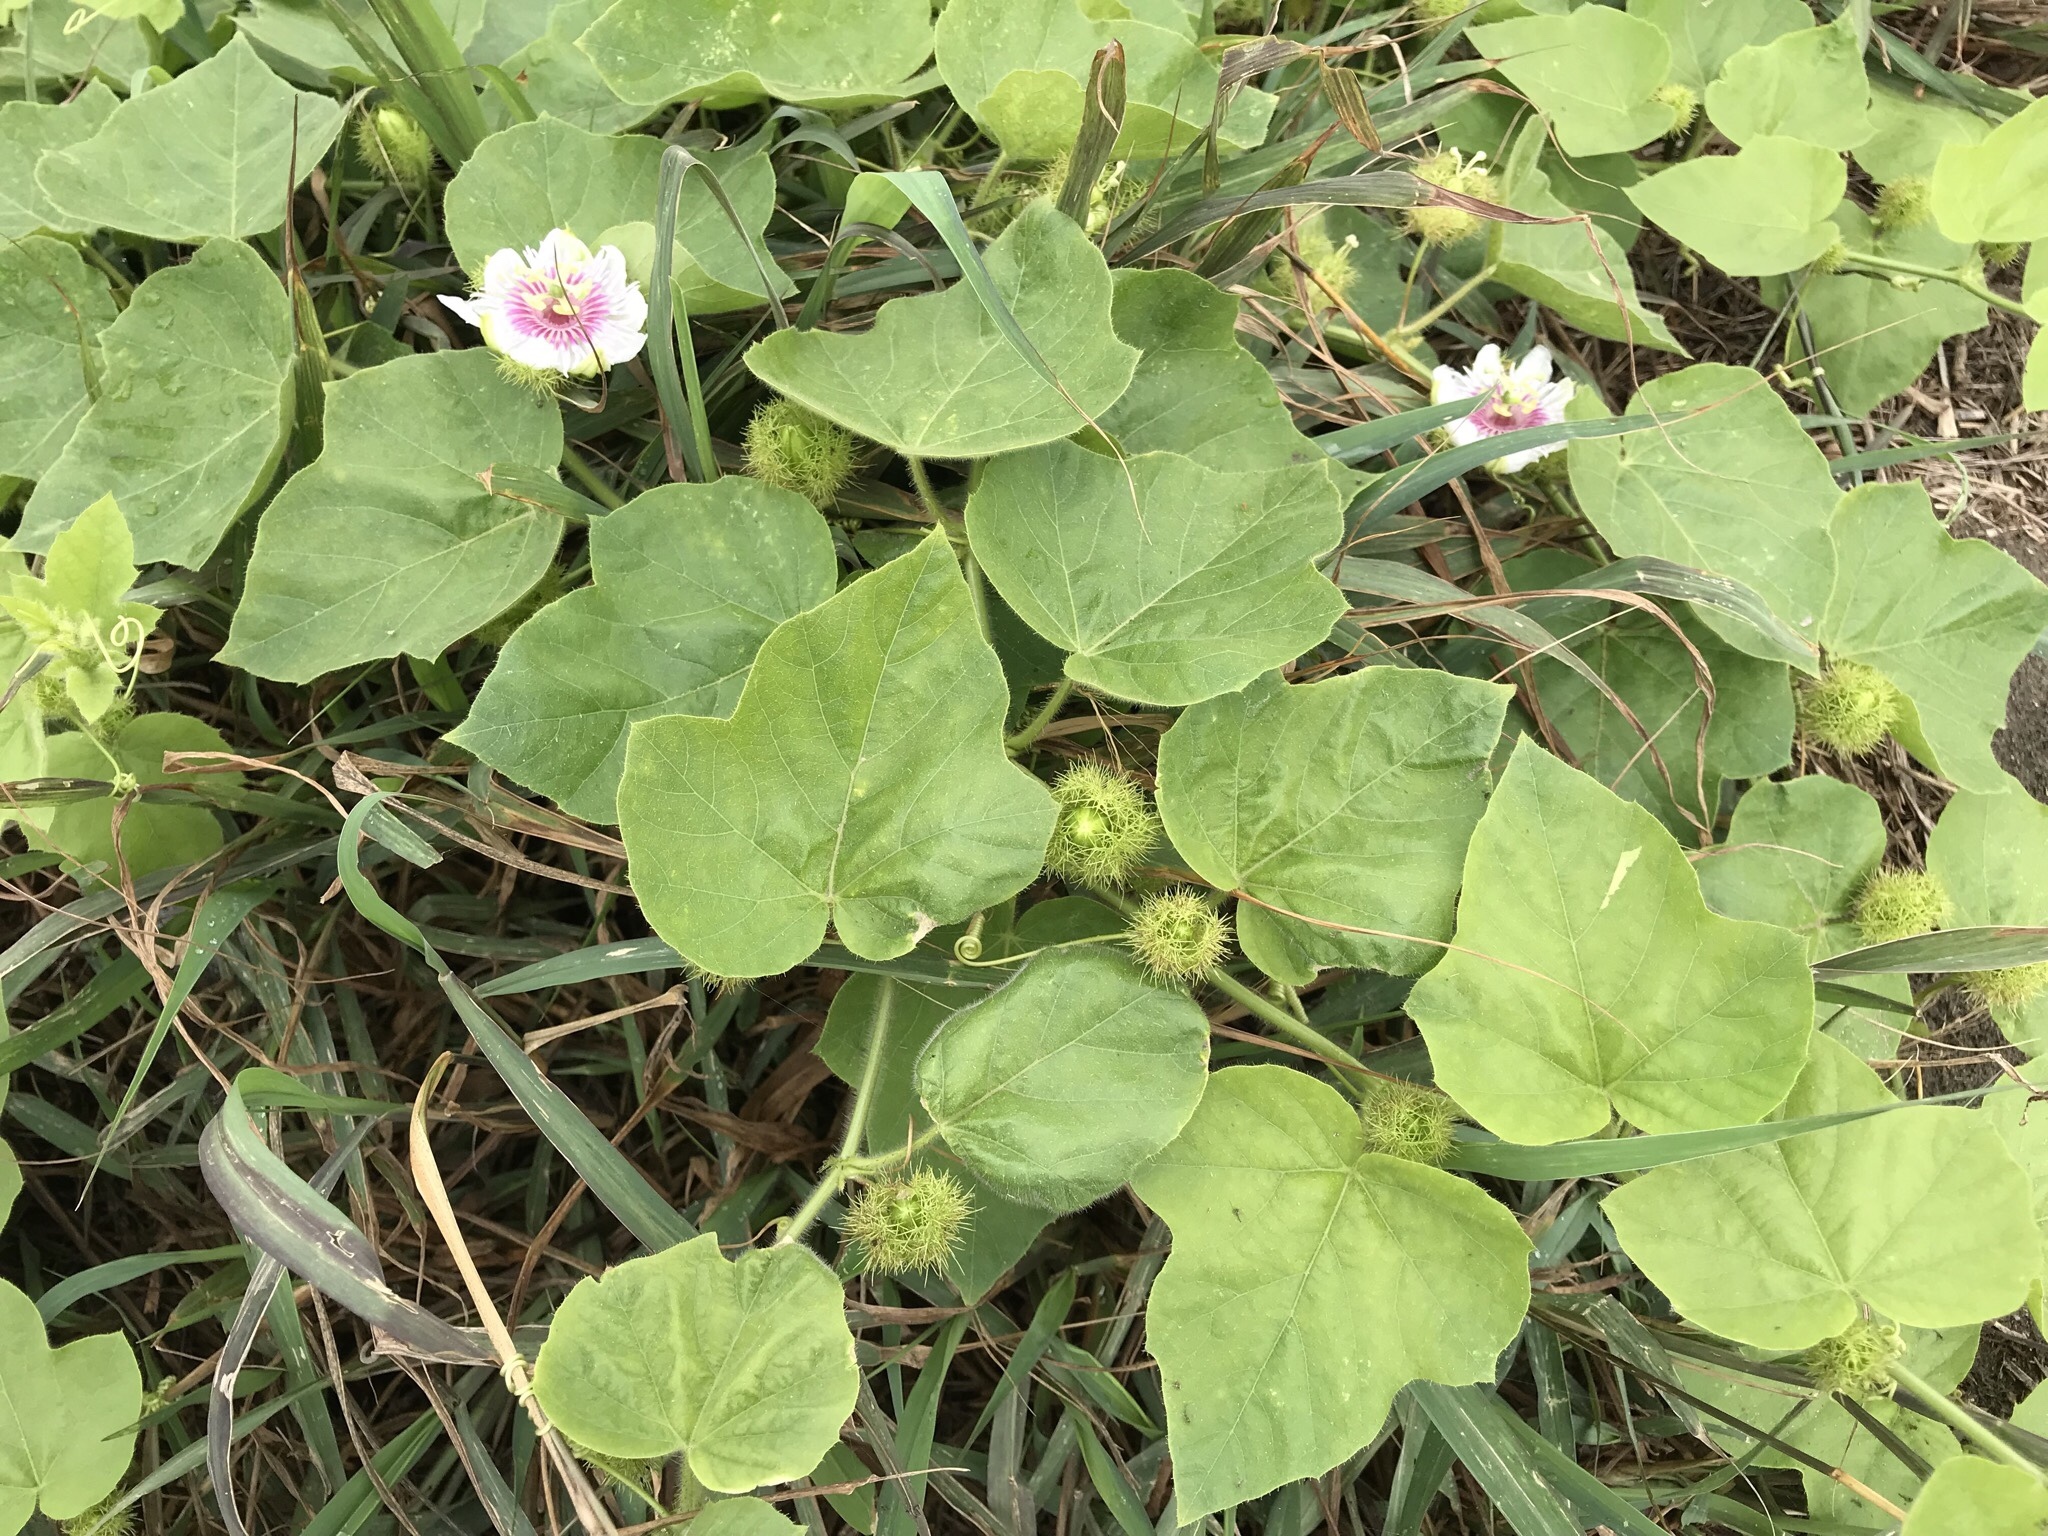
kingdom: Plantae
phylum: Tracheophyta
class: Magnoliopsida
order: Malpighiales
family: Passifloraceae
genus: Passiflora
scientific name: Passiflora vesicaria
